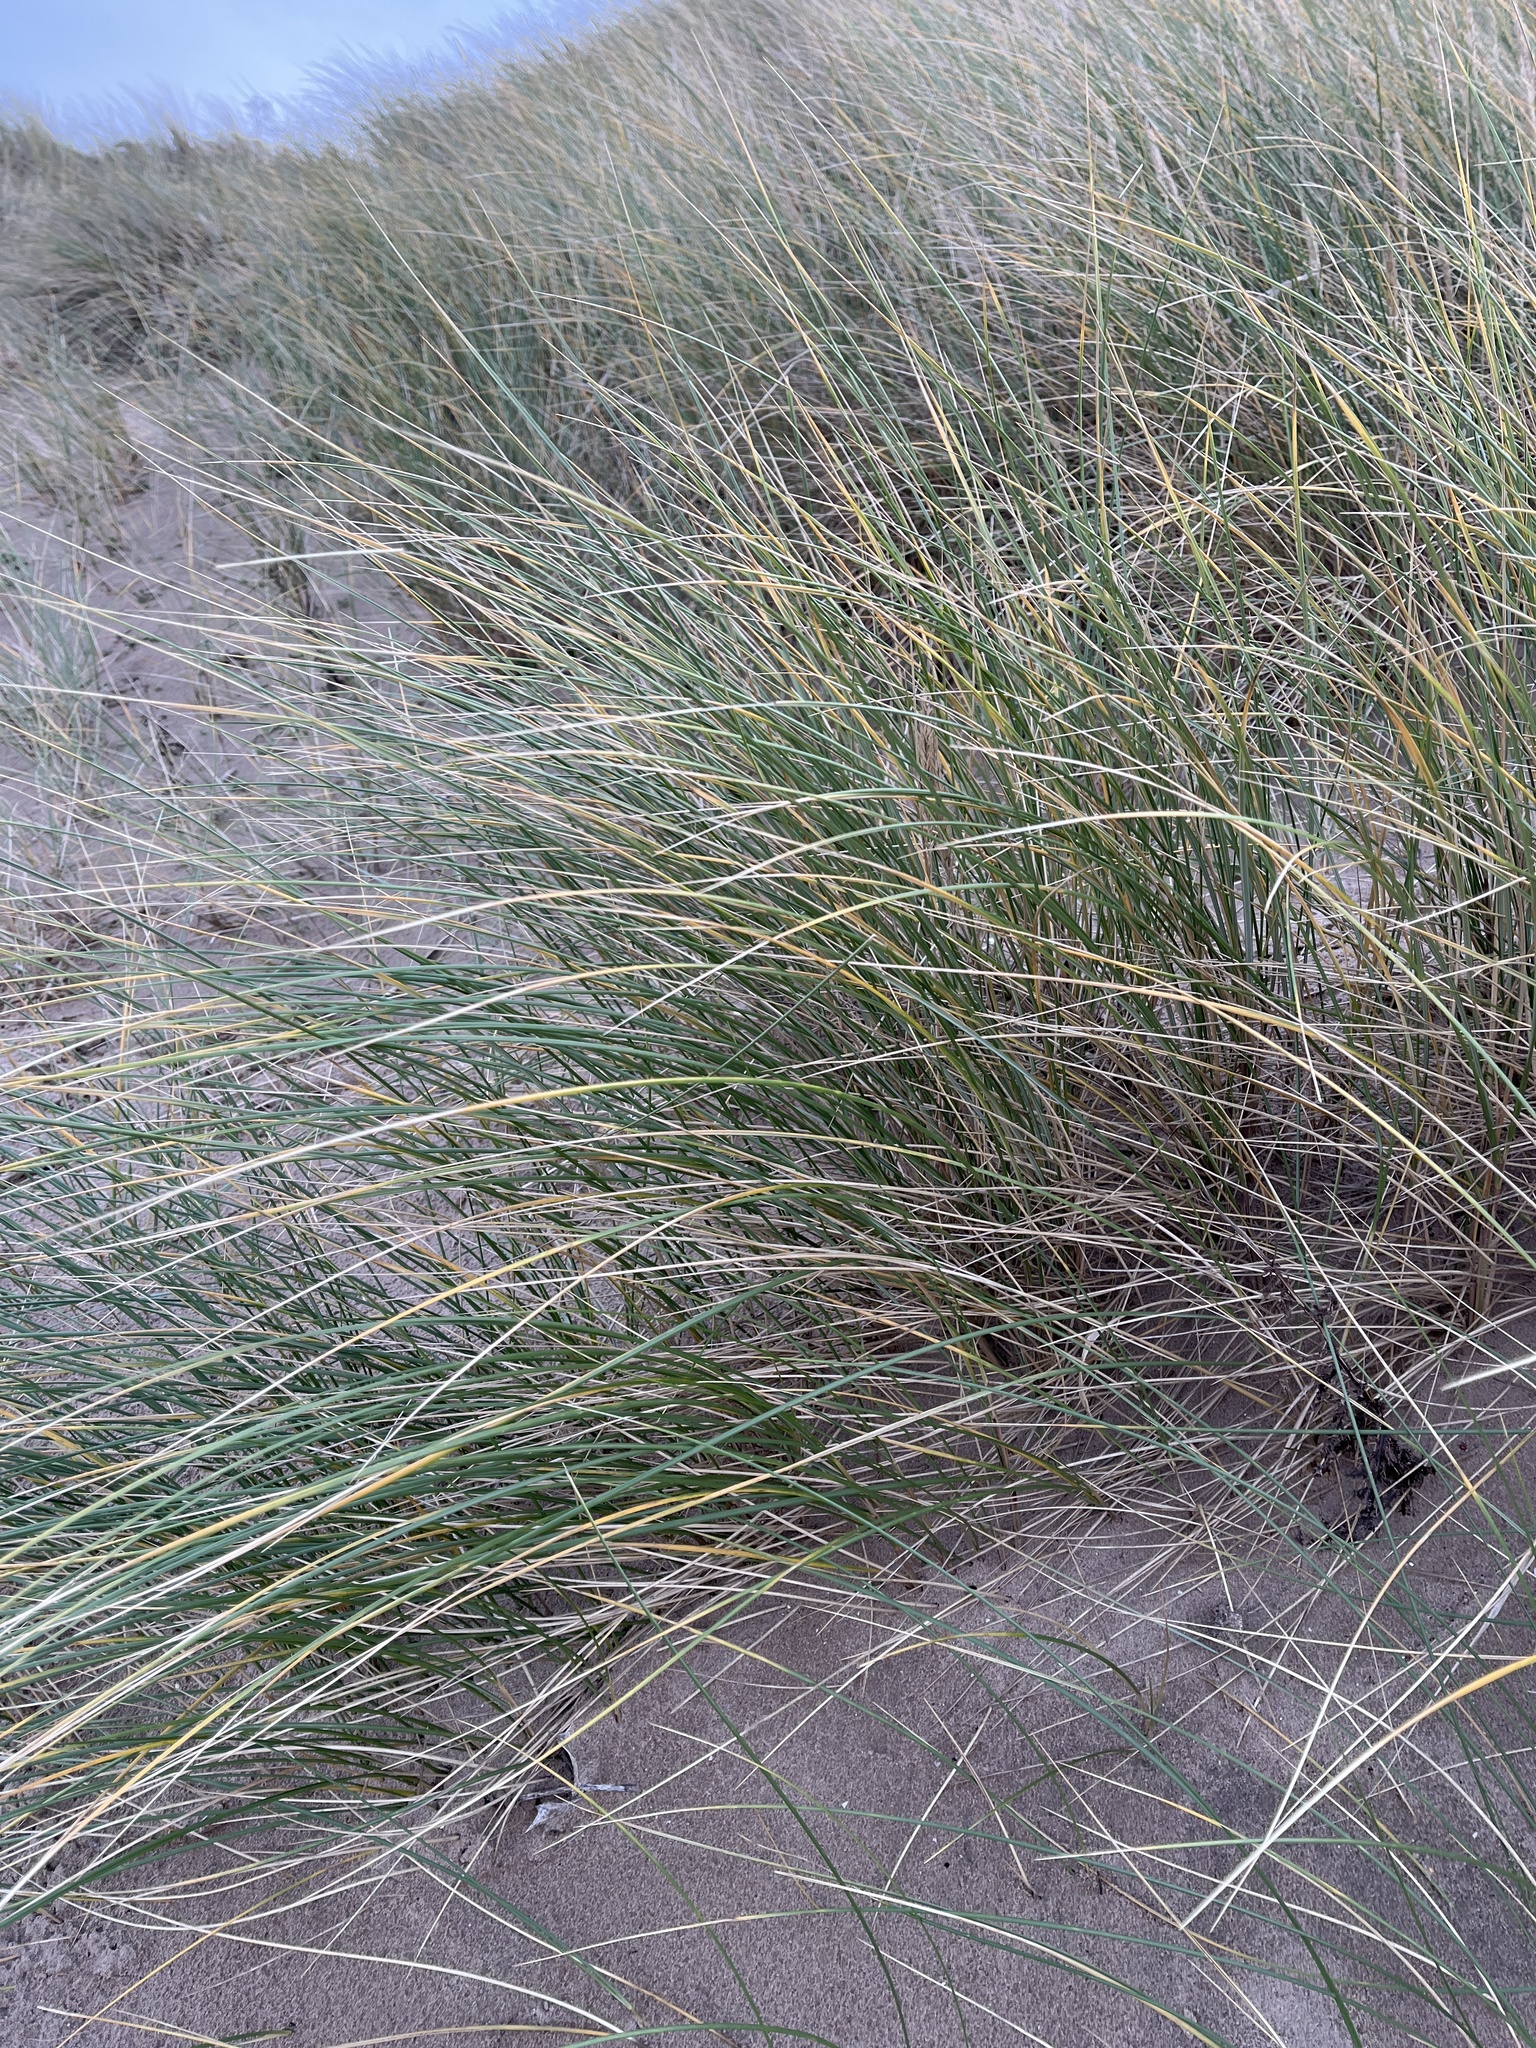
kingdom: Plantae
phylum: Tracheophyta
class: Liliopsida
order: Poales
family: Poaceae
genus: Calamagrostis
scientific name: Calamagrostis arenaria
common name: European beachgrass
